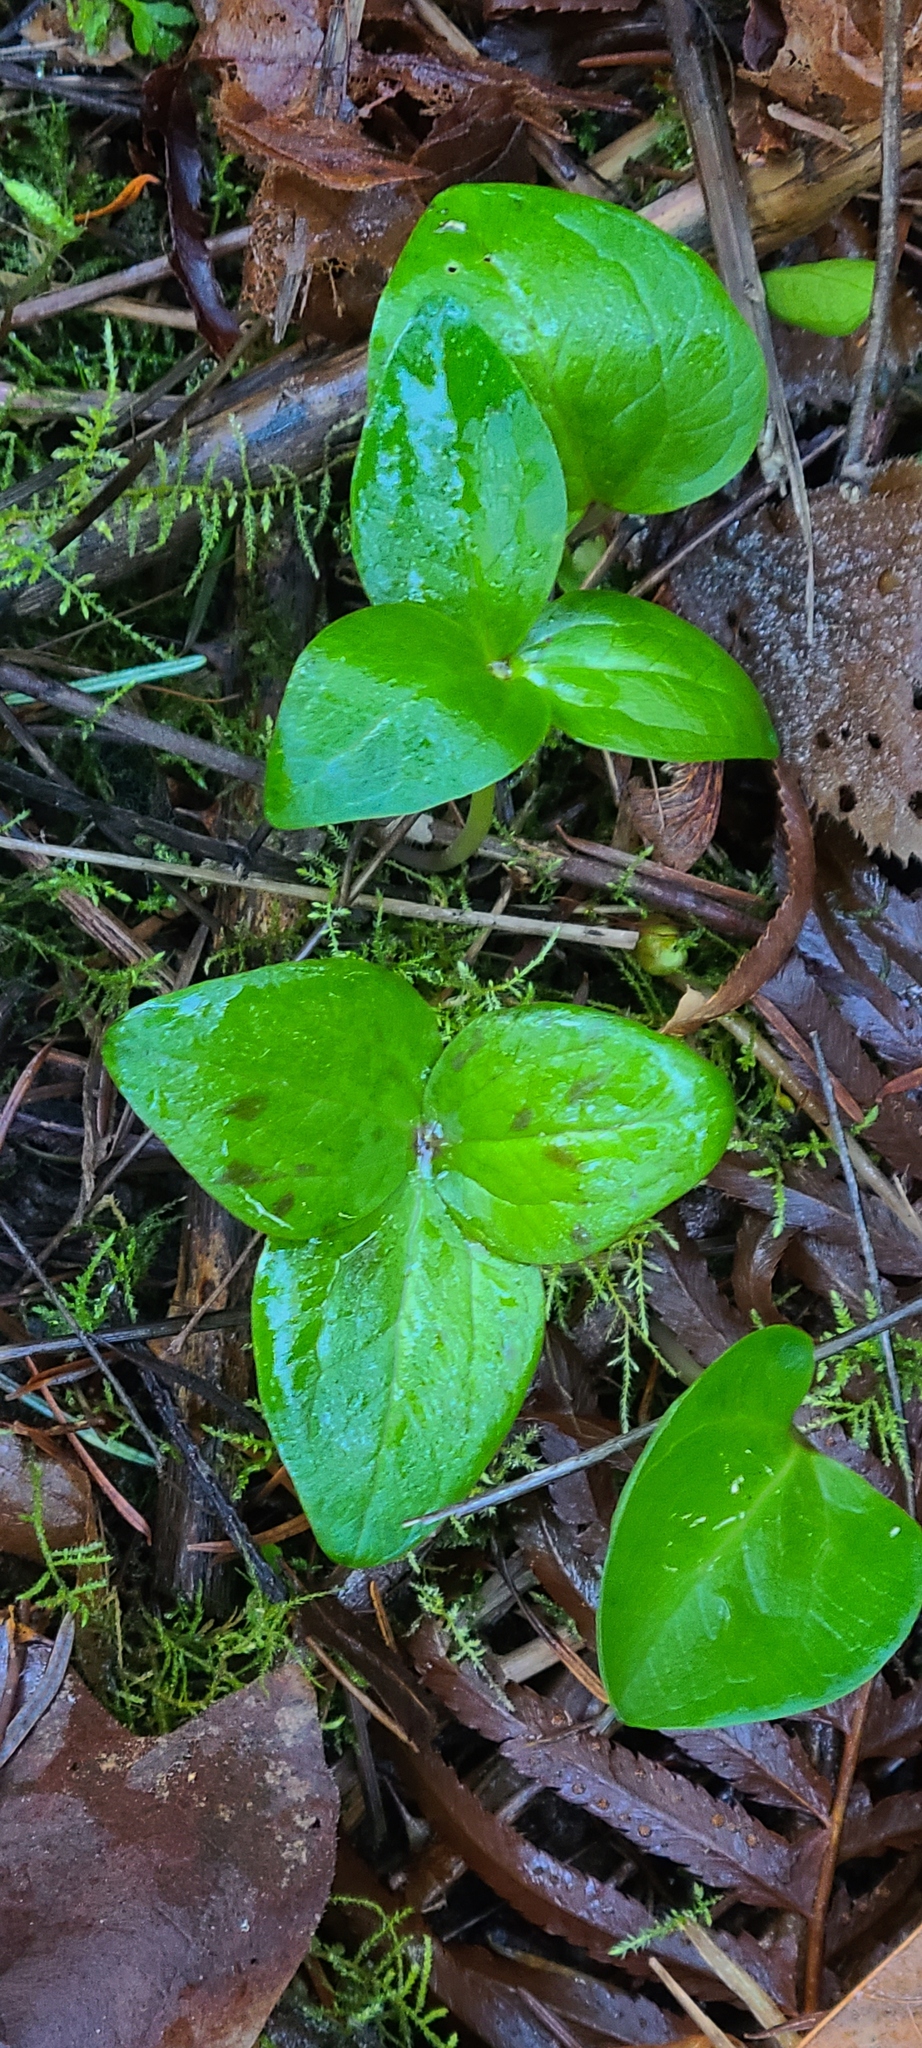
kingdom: Plantae
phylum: Tracheophyta
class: Liliopsida
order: Liliales
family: Melanthiaceae
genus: Trillium
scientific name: Trillium
